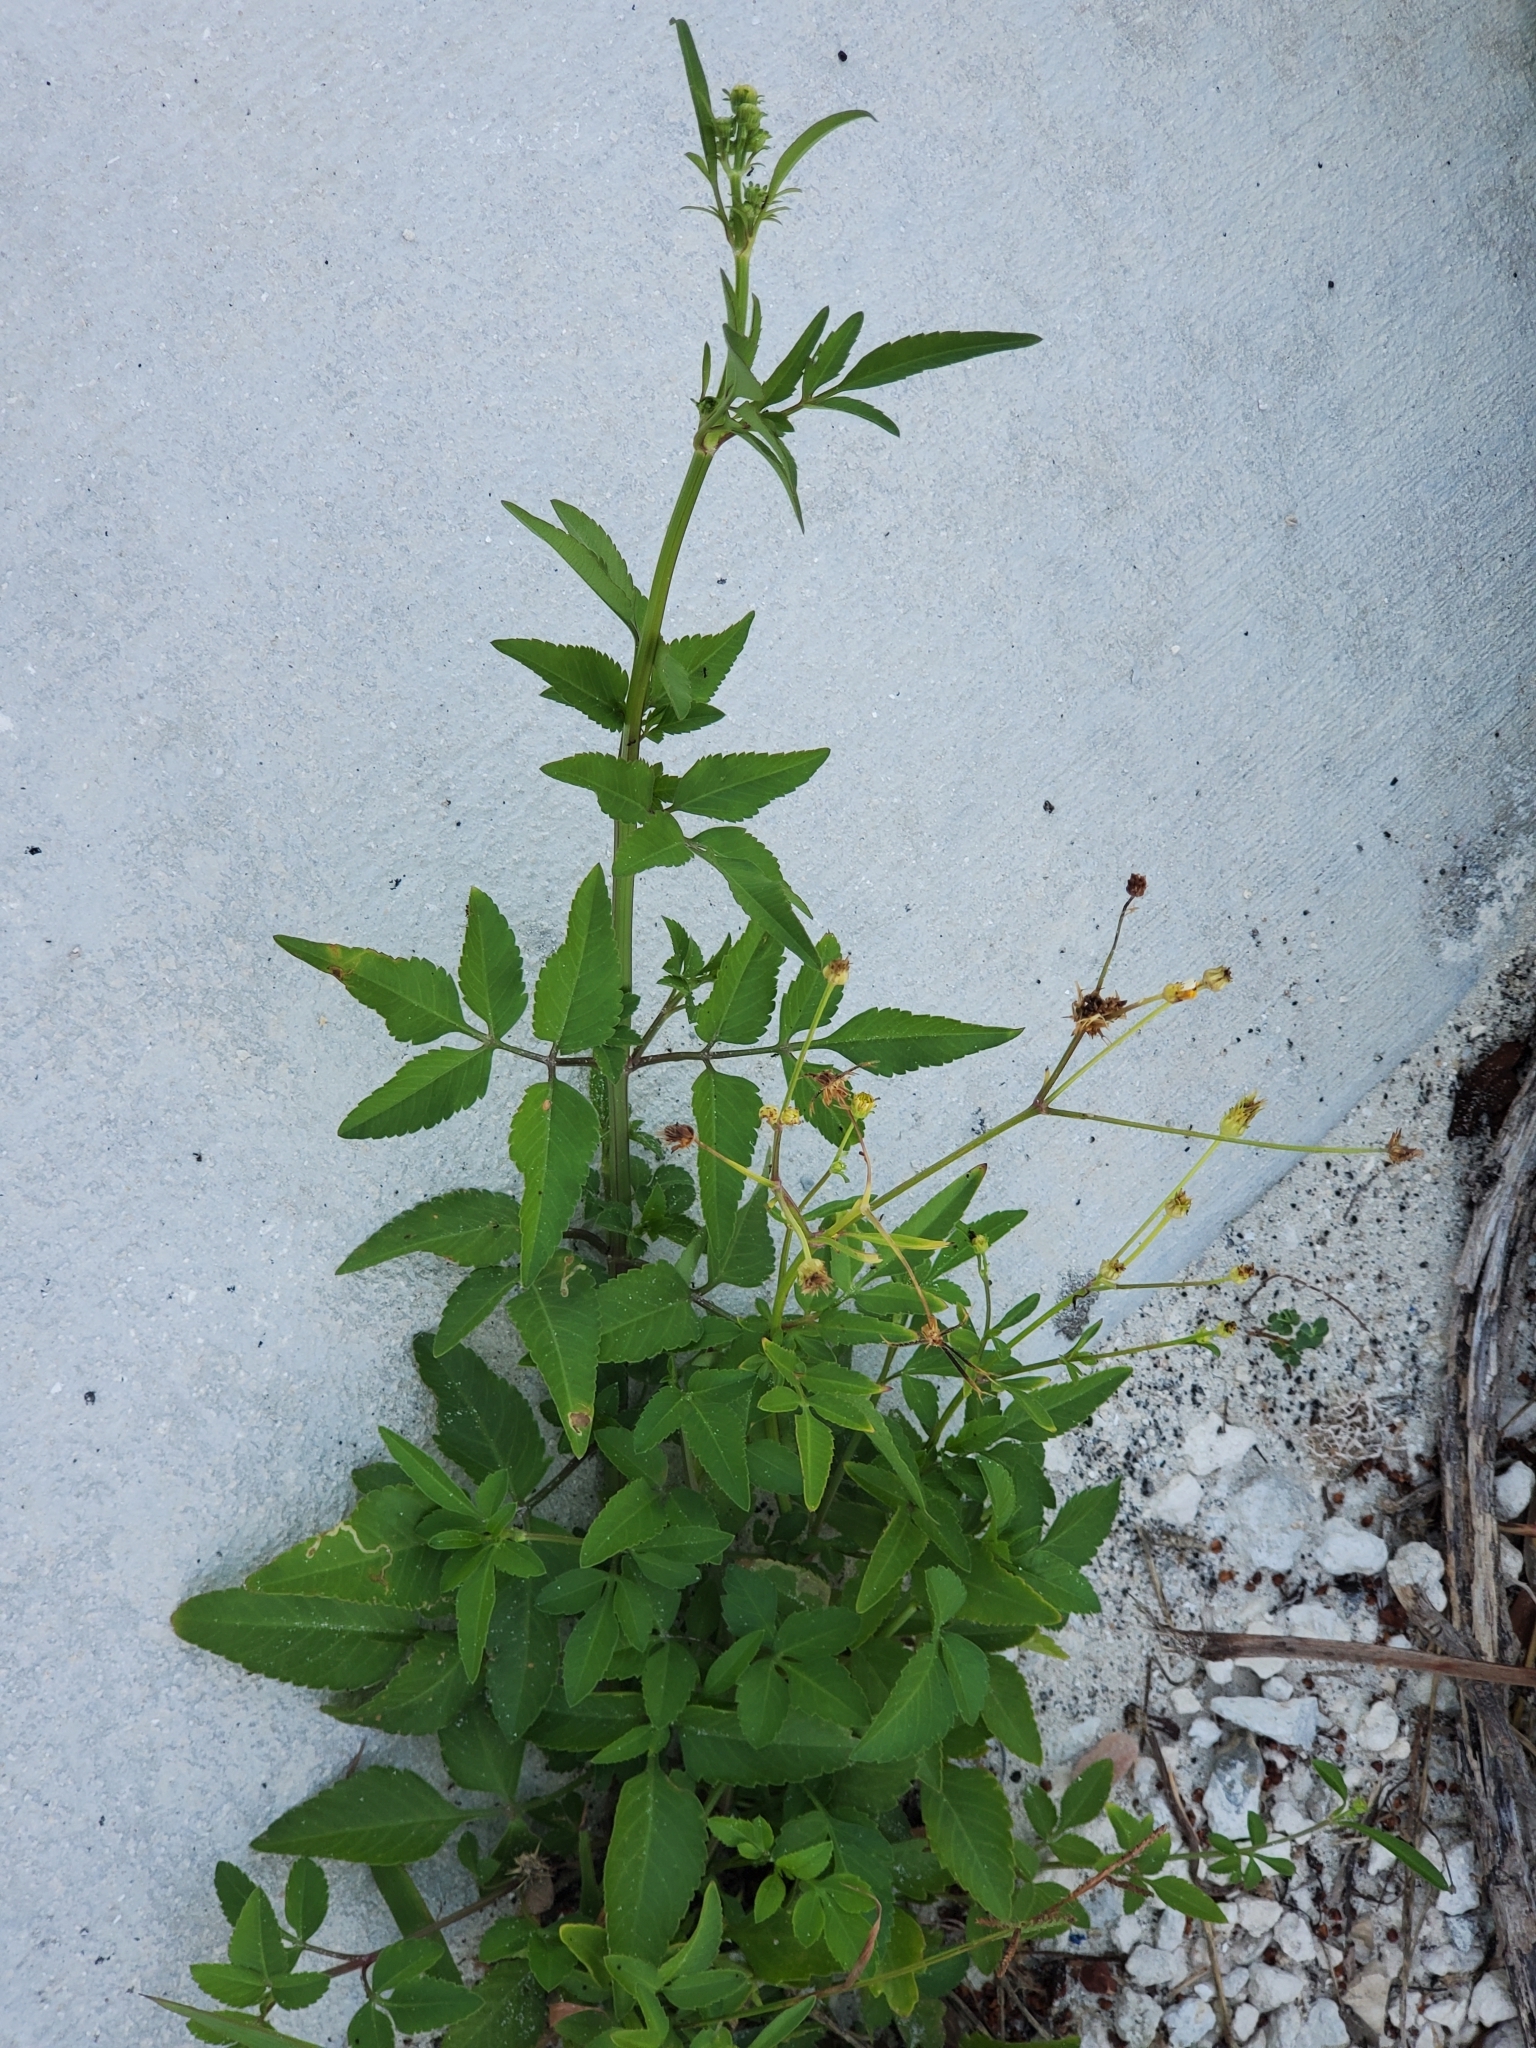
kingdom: Plantae
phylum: Tracheophyta
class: Magnoliopsida
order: Asterales
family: Asteraceae
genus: Bidens
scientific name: Bidens alba
